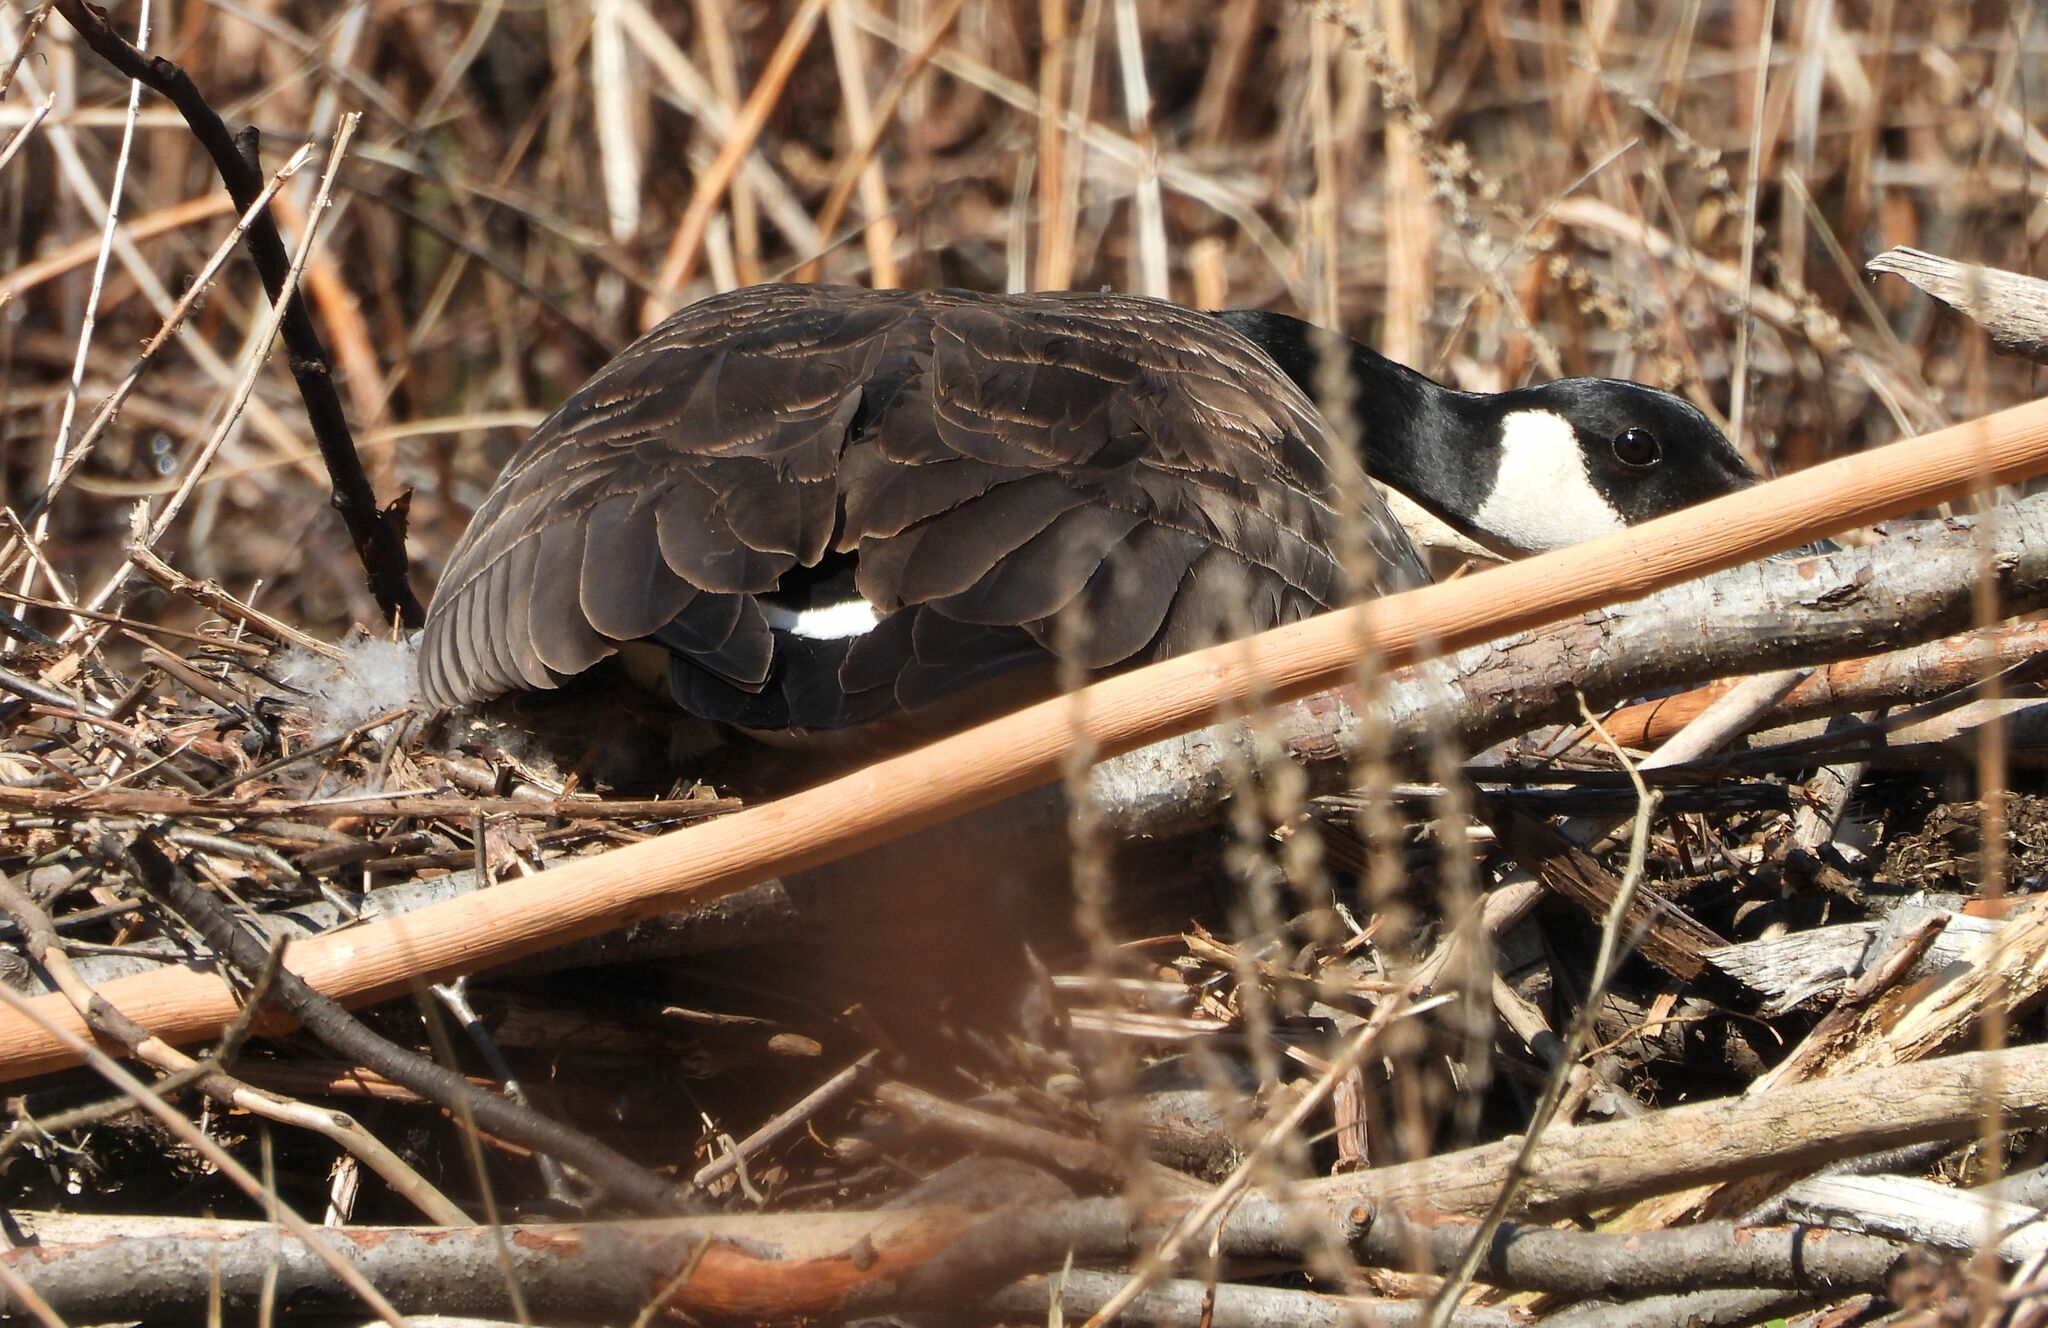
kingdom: Animalia
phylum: Chordata
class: Aves
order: Anseriformes
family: Anatidae
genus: Branta
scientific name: Branta canadensis
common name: Canada goose
